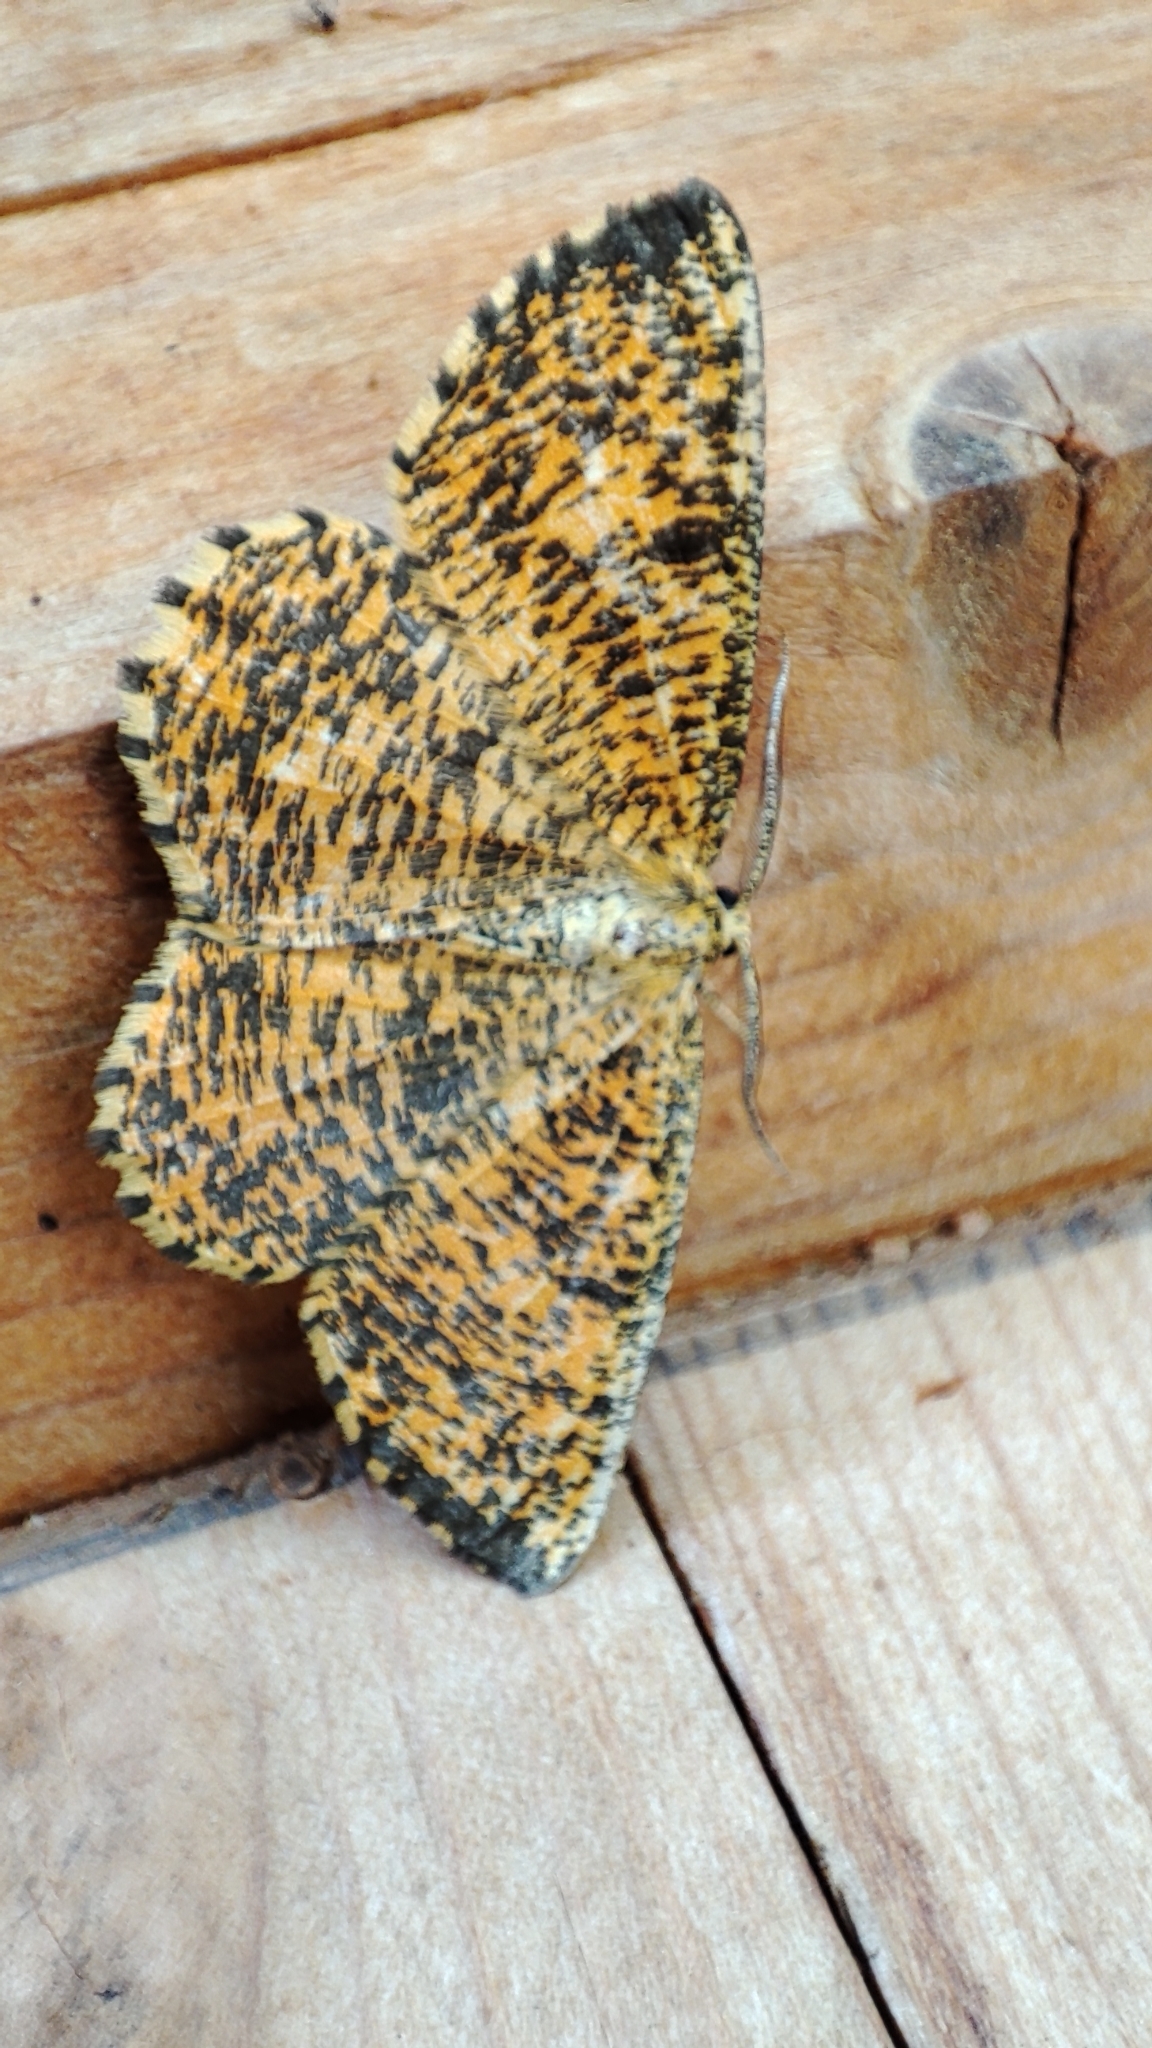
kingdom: Animalia
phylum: Arthropoda
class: Insecta
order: Lepidoptera
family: Geometridae
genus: Angerona
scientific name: Angerona prunaria
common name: Orange moth
